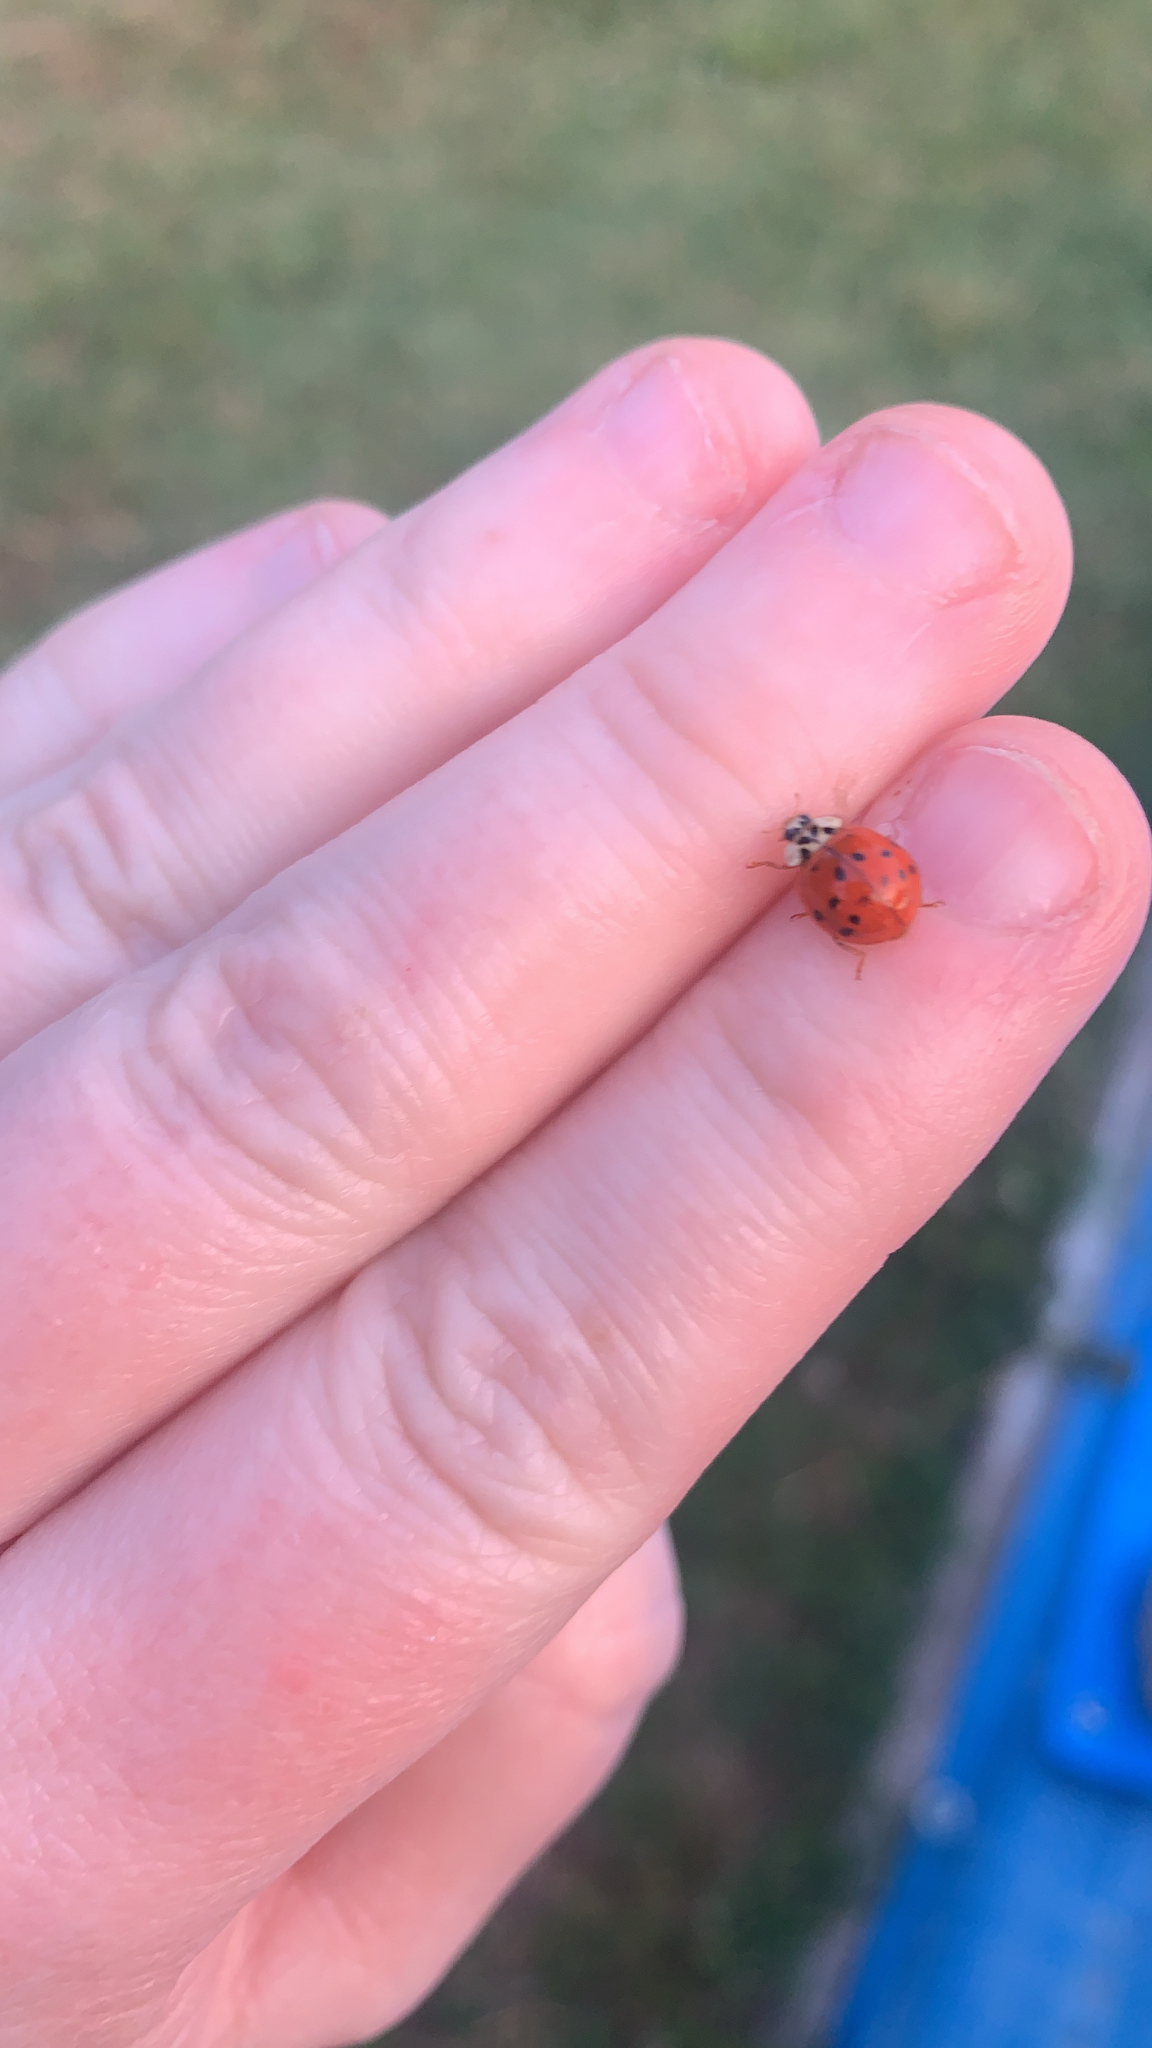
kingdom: Animalia
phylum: Arthropoda
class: Insecta
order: Coleoptera
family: Coccinellidae
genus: Harmonia
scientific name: Harmonia axyridis
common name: Harlequin ladybird
